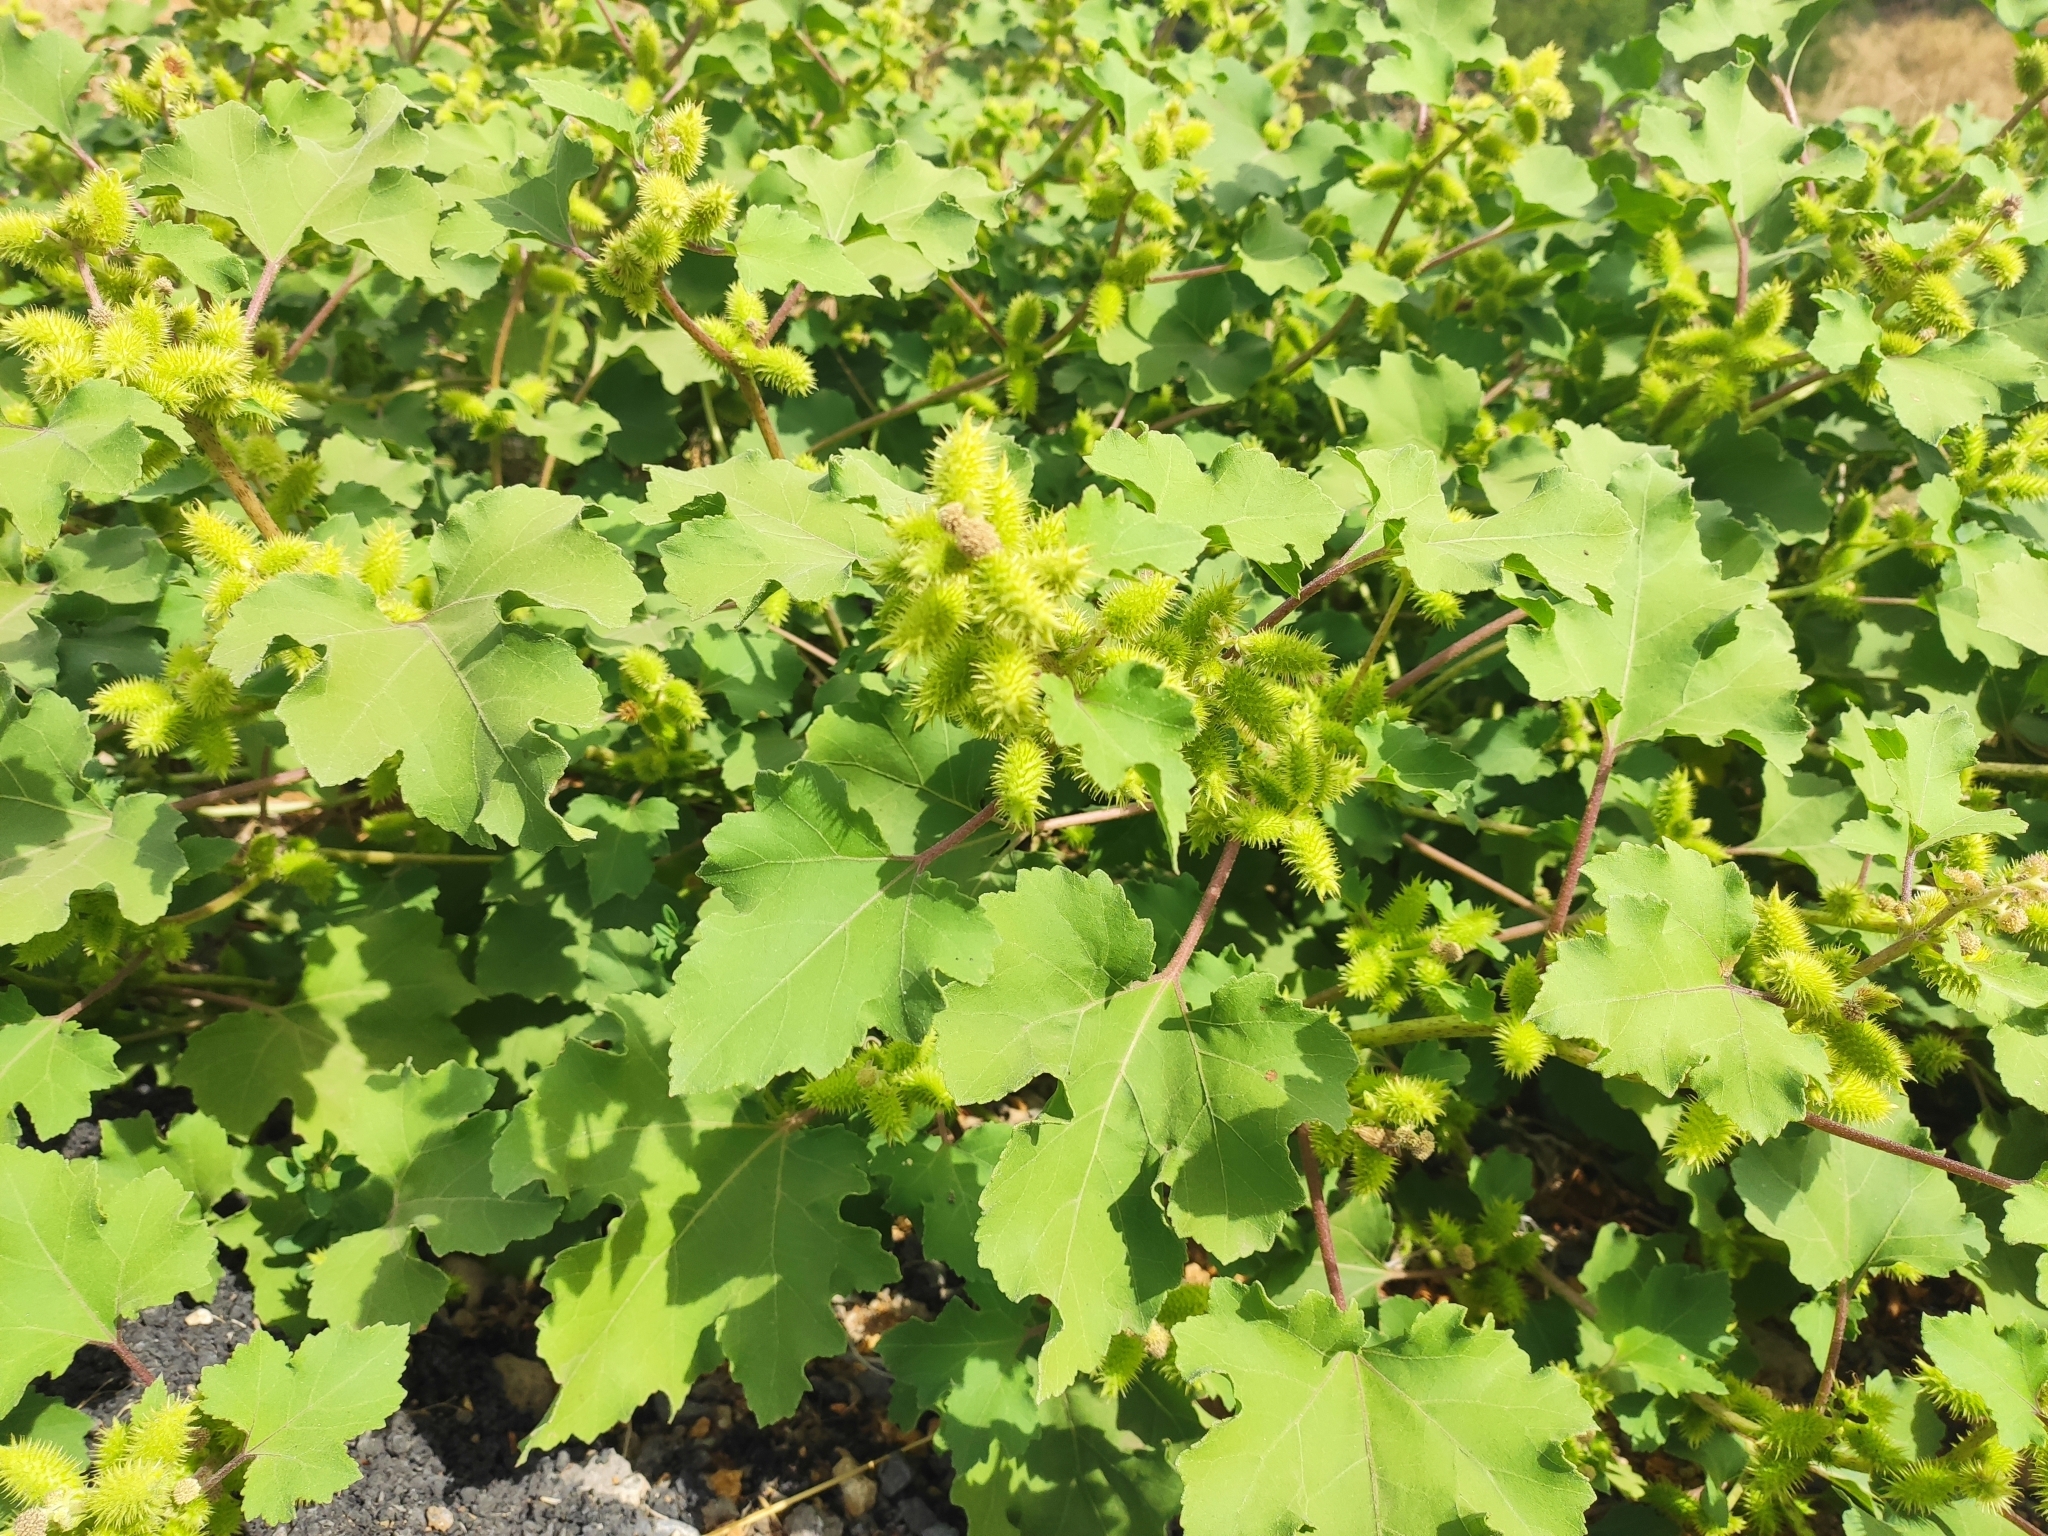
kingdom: Plantae
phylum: Tracheophyta
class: Magnoliopsida
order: Asterales
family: Asteraceae
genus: Xanthium
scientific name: Xanthium orientale
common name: Californian burr
